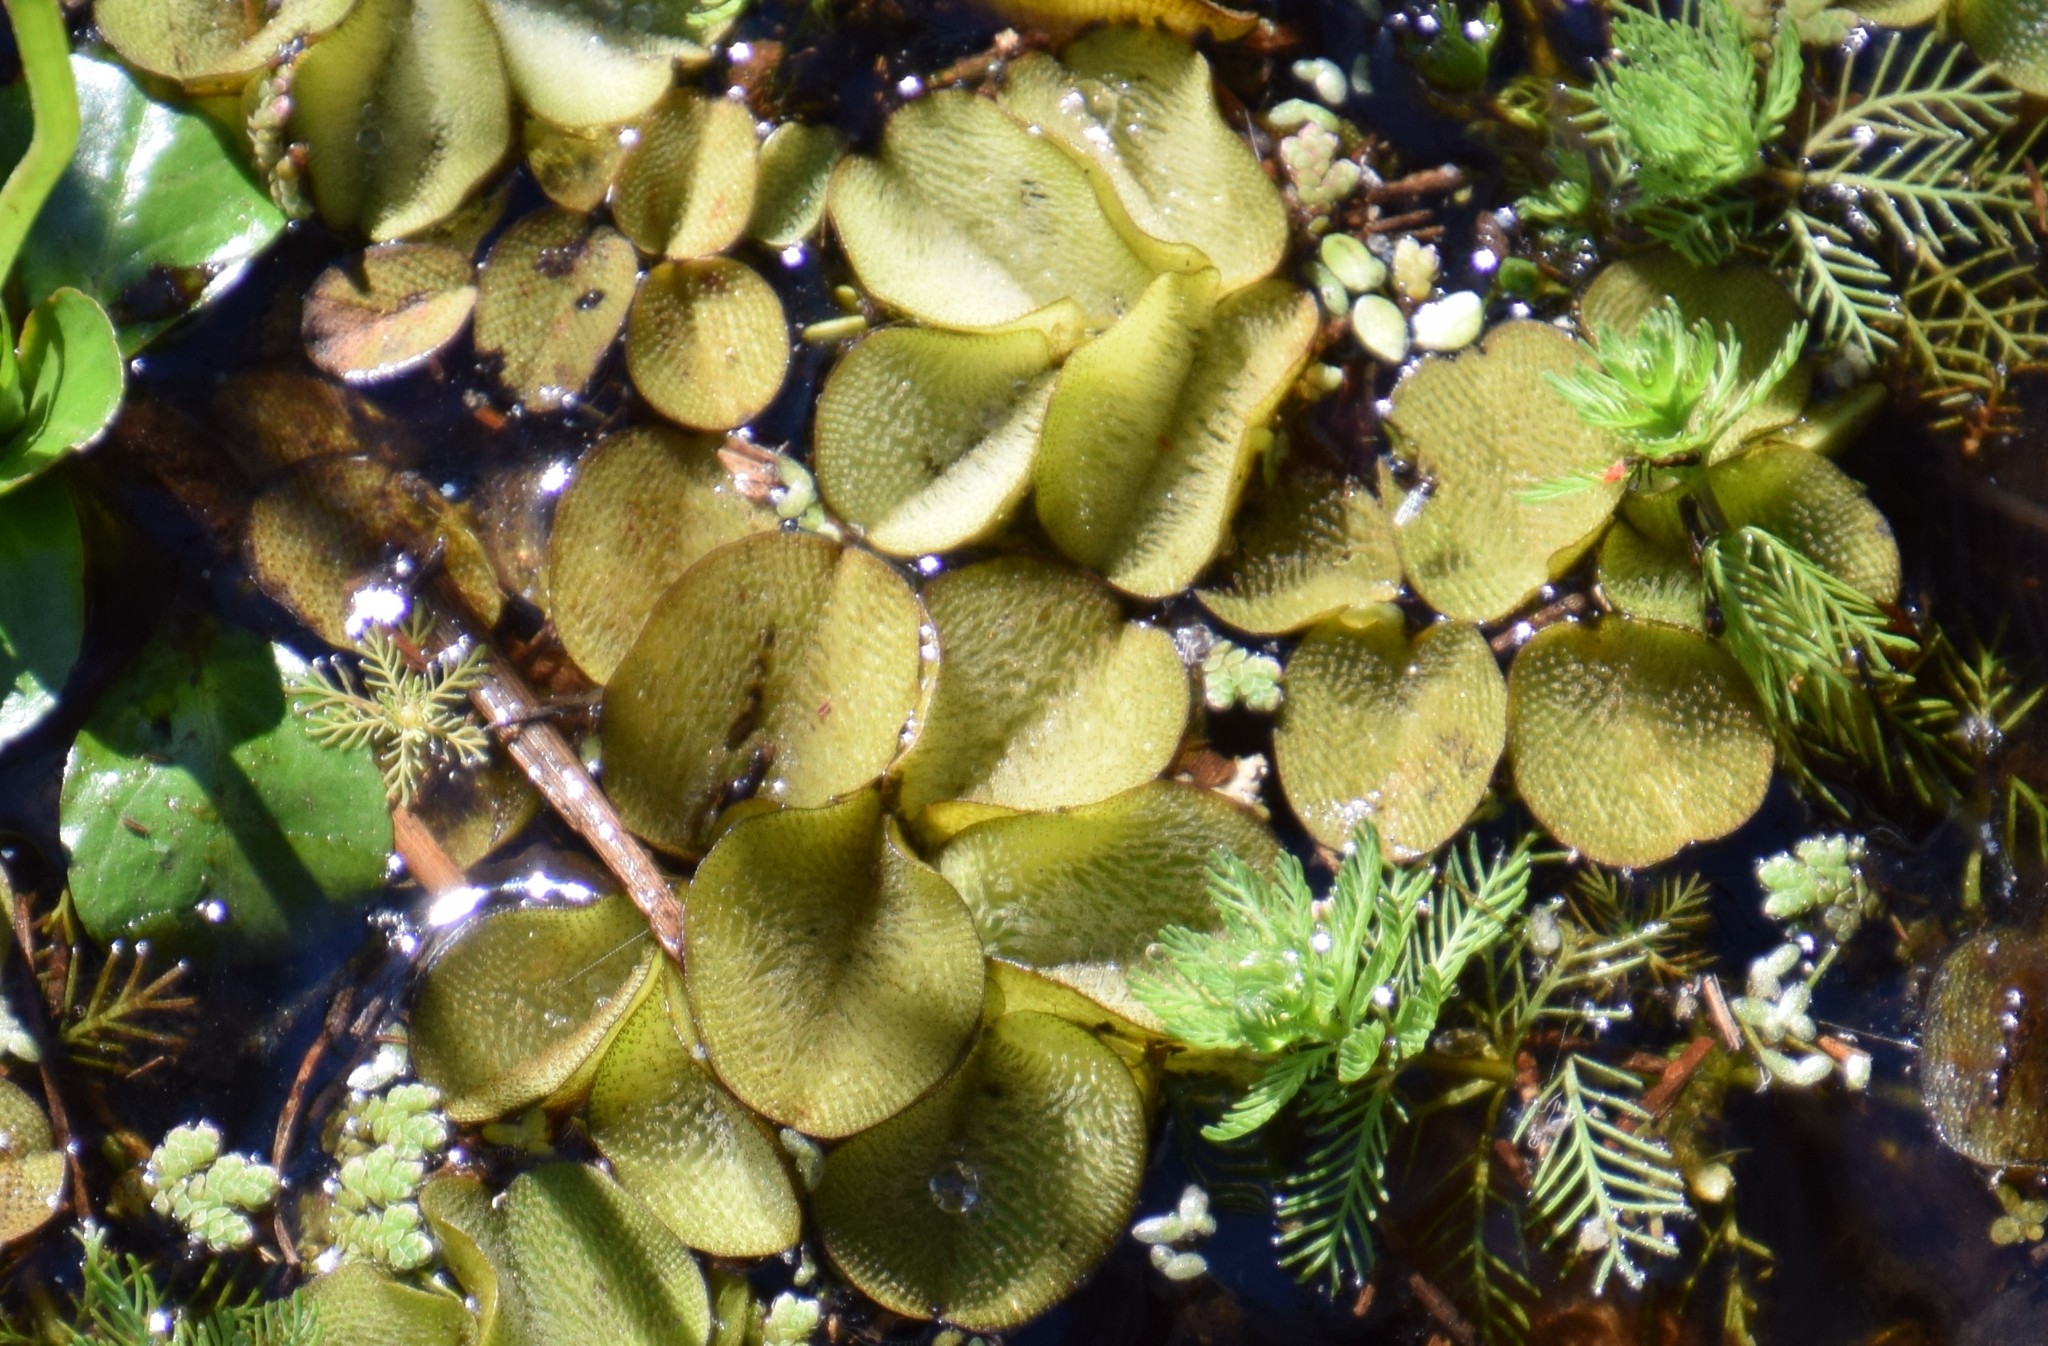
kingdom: Plantae
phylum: Tracheophyta
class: Polypodiopsida
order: Salviniales
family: Salviniaceae
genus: Salvinia
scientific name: Salvinia molesta
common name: Kariba weed
